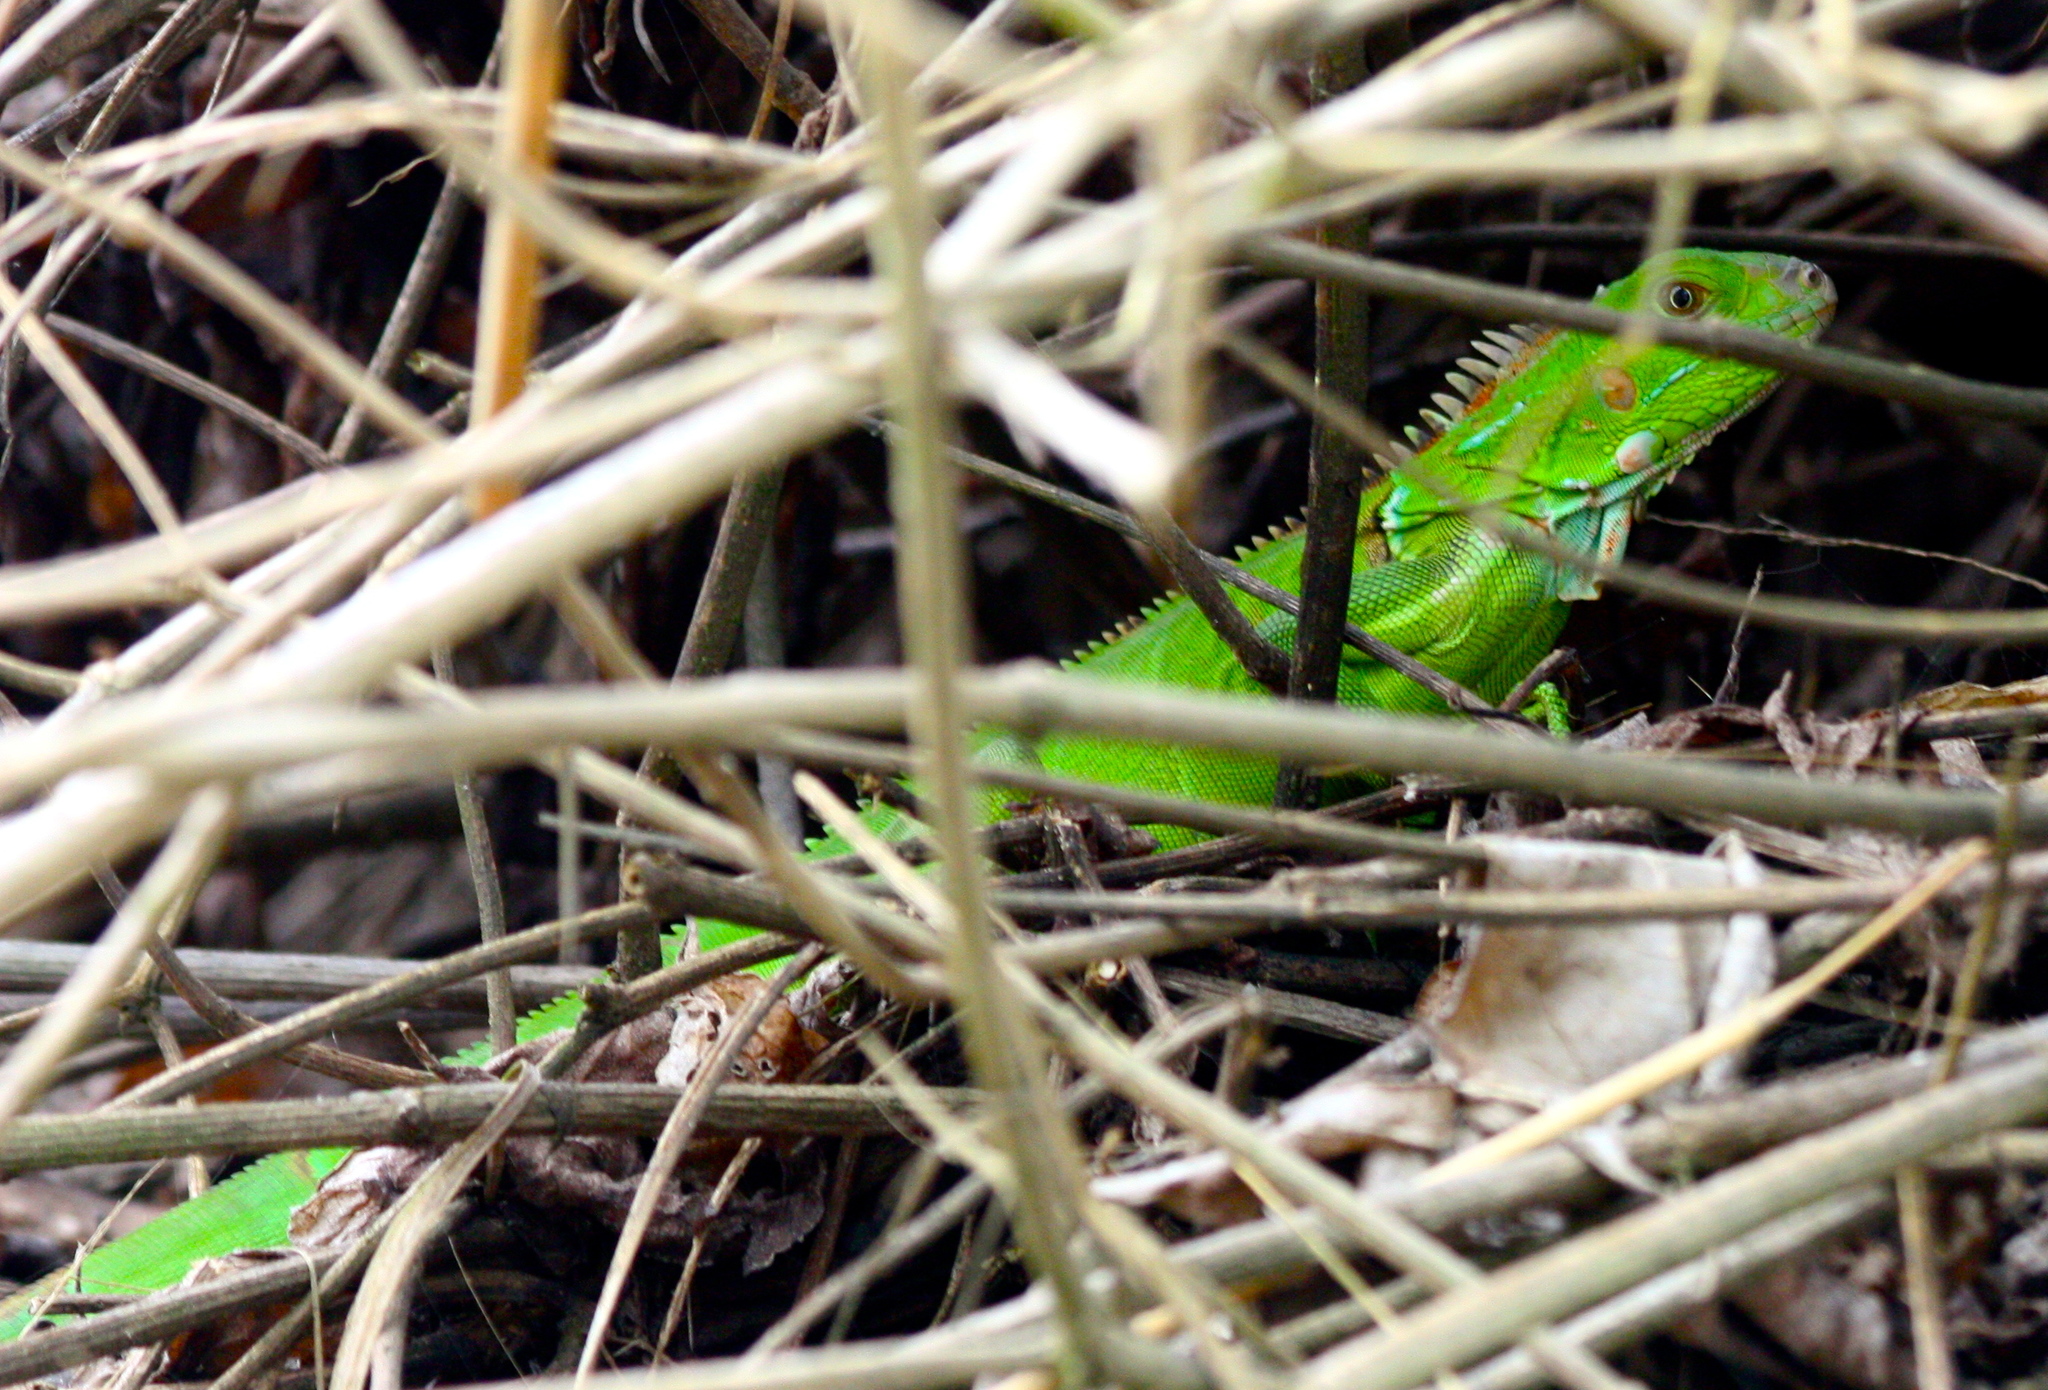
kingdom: Animalia
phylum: Chordata
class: Squamata
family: Iguanidae
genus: Iguana
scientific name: Iguana iguana
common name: Green iguana
